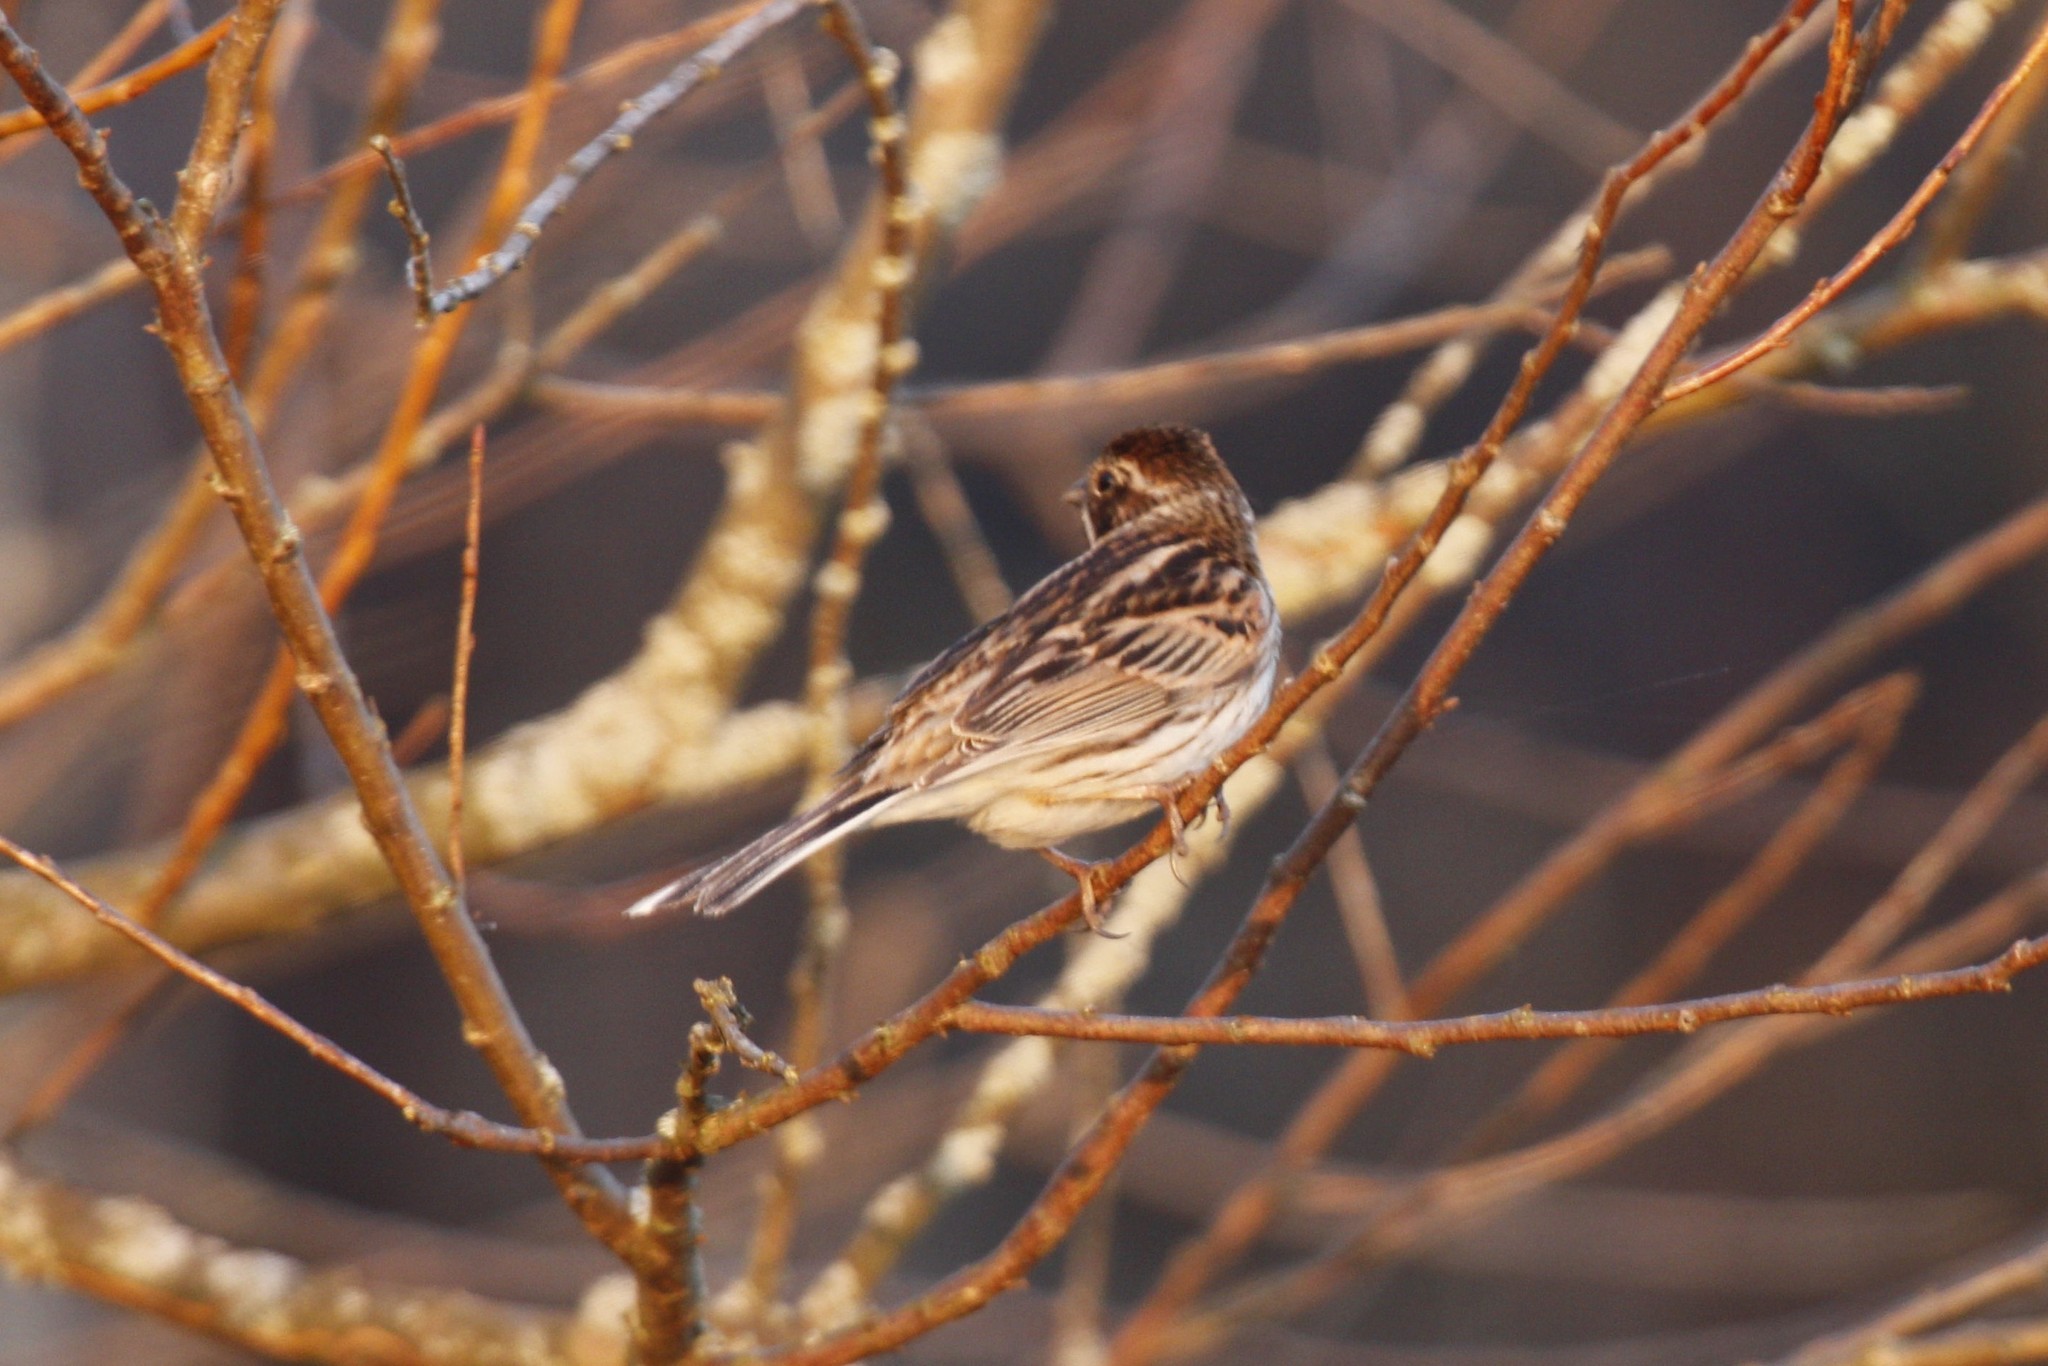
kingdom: Animalia
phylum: Chordata
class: Aves
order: Passeriformes
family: Emberizidae
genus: Emberiza
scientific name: Emberiza schoeniclus
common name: Reed bunting
